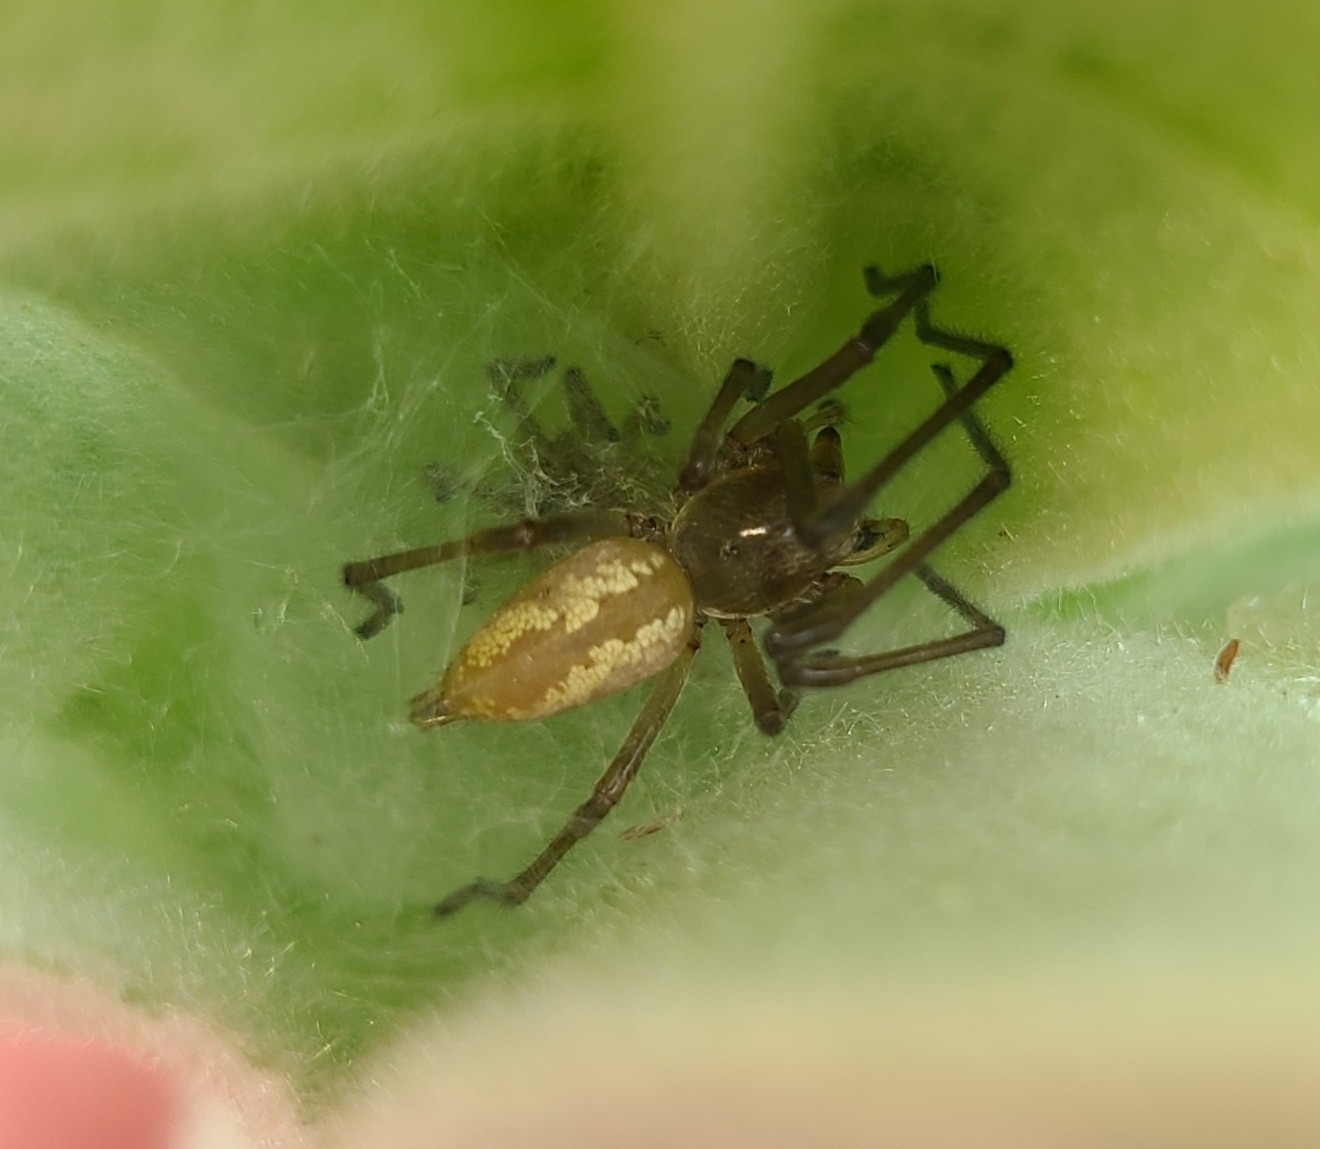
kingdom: Animalia
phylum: Arthropoda
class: Arachnida
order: Araneae
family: Cheiracanthiidae
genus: Eutittha
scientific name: Eutittha stratiotica
